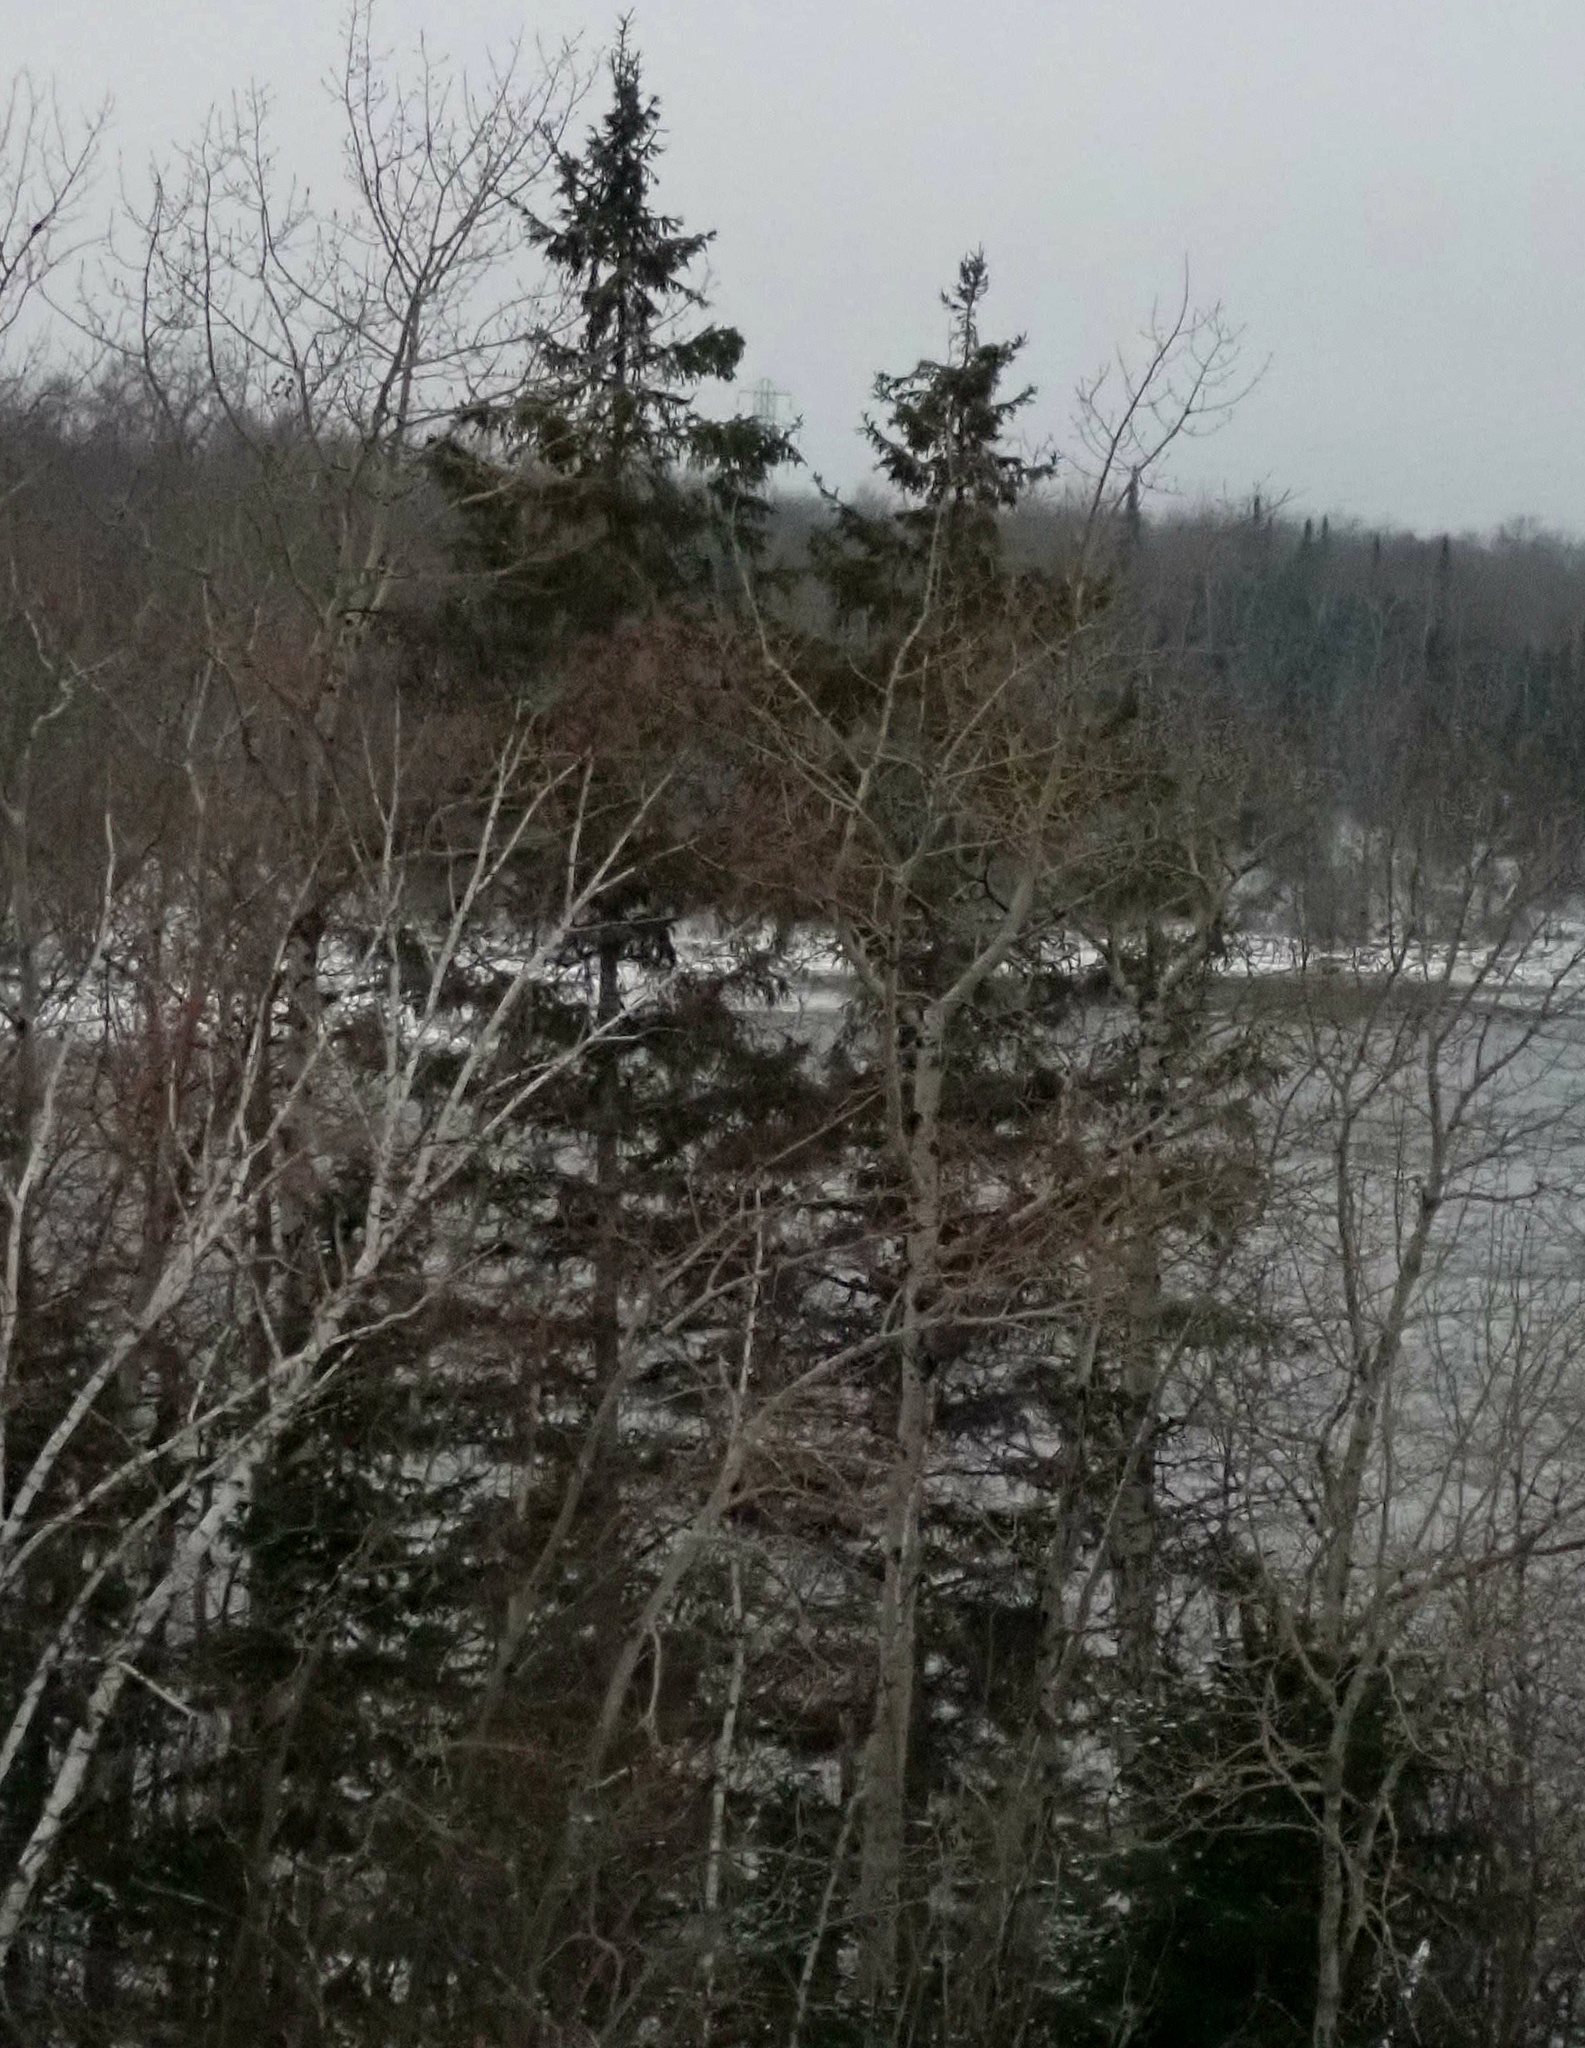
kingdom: Plantae
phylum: Tracheophyta
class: Pinopsida
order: Pinales
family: Pinaceae
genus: Picea
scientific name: Picea glauca
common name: White spruce
